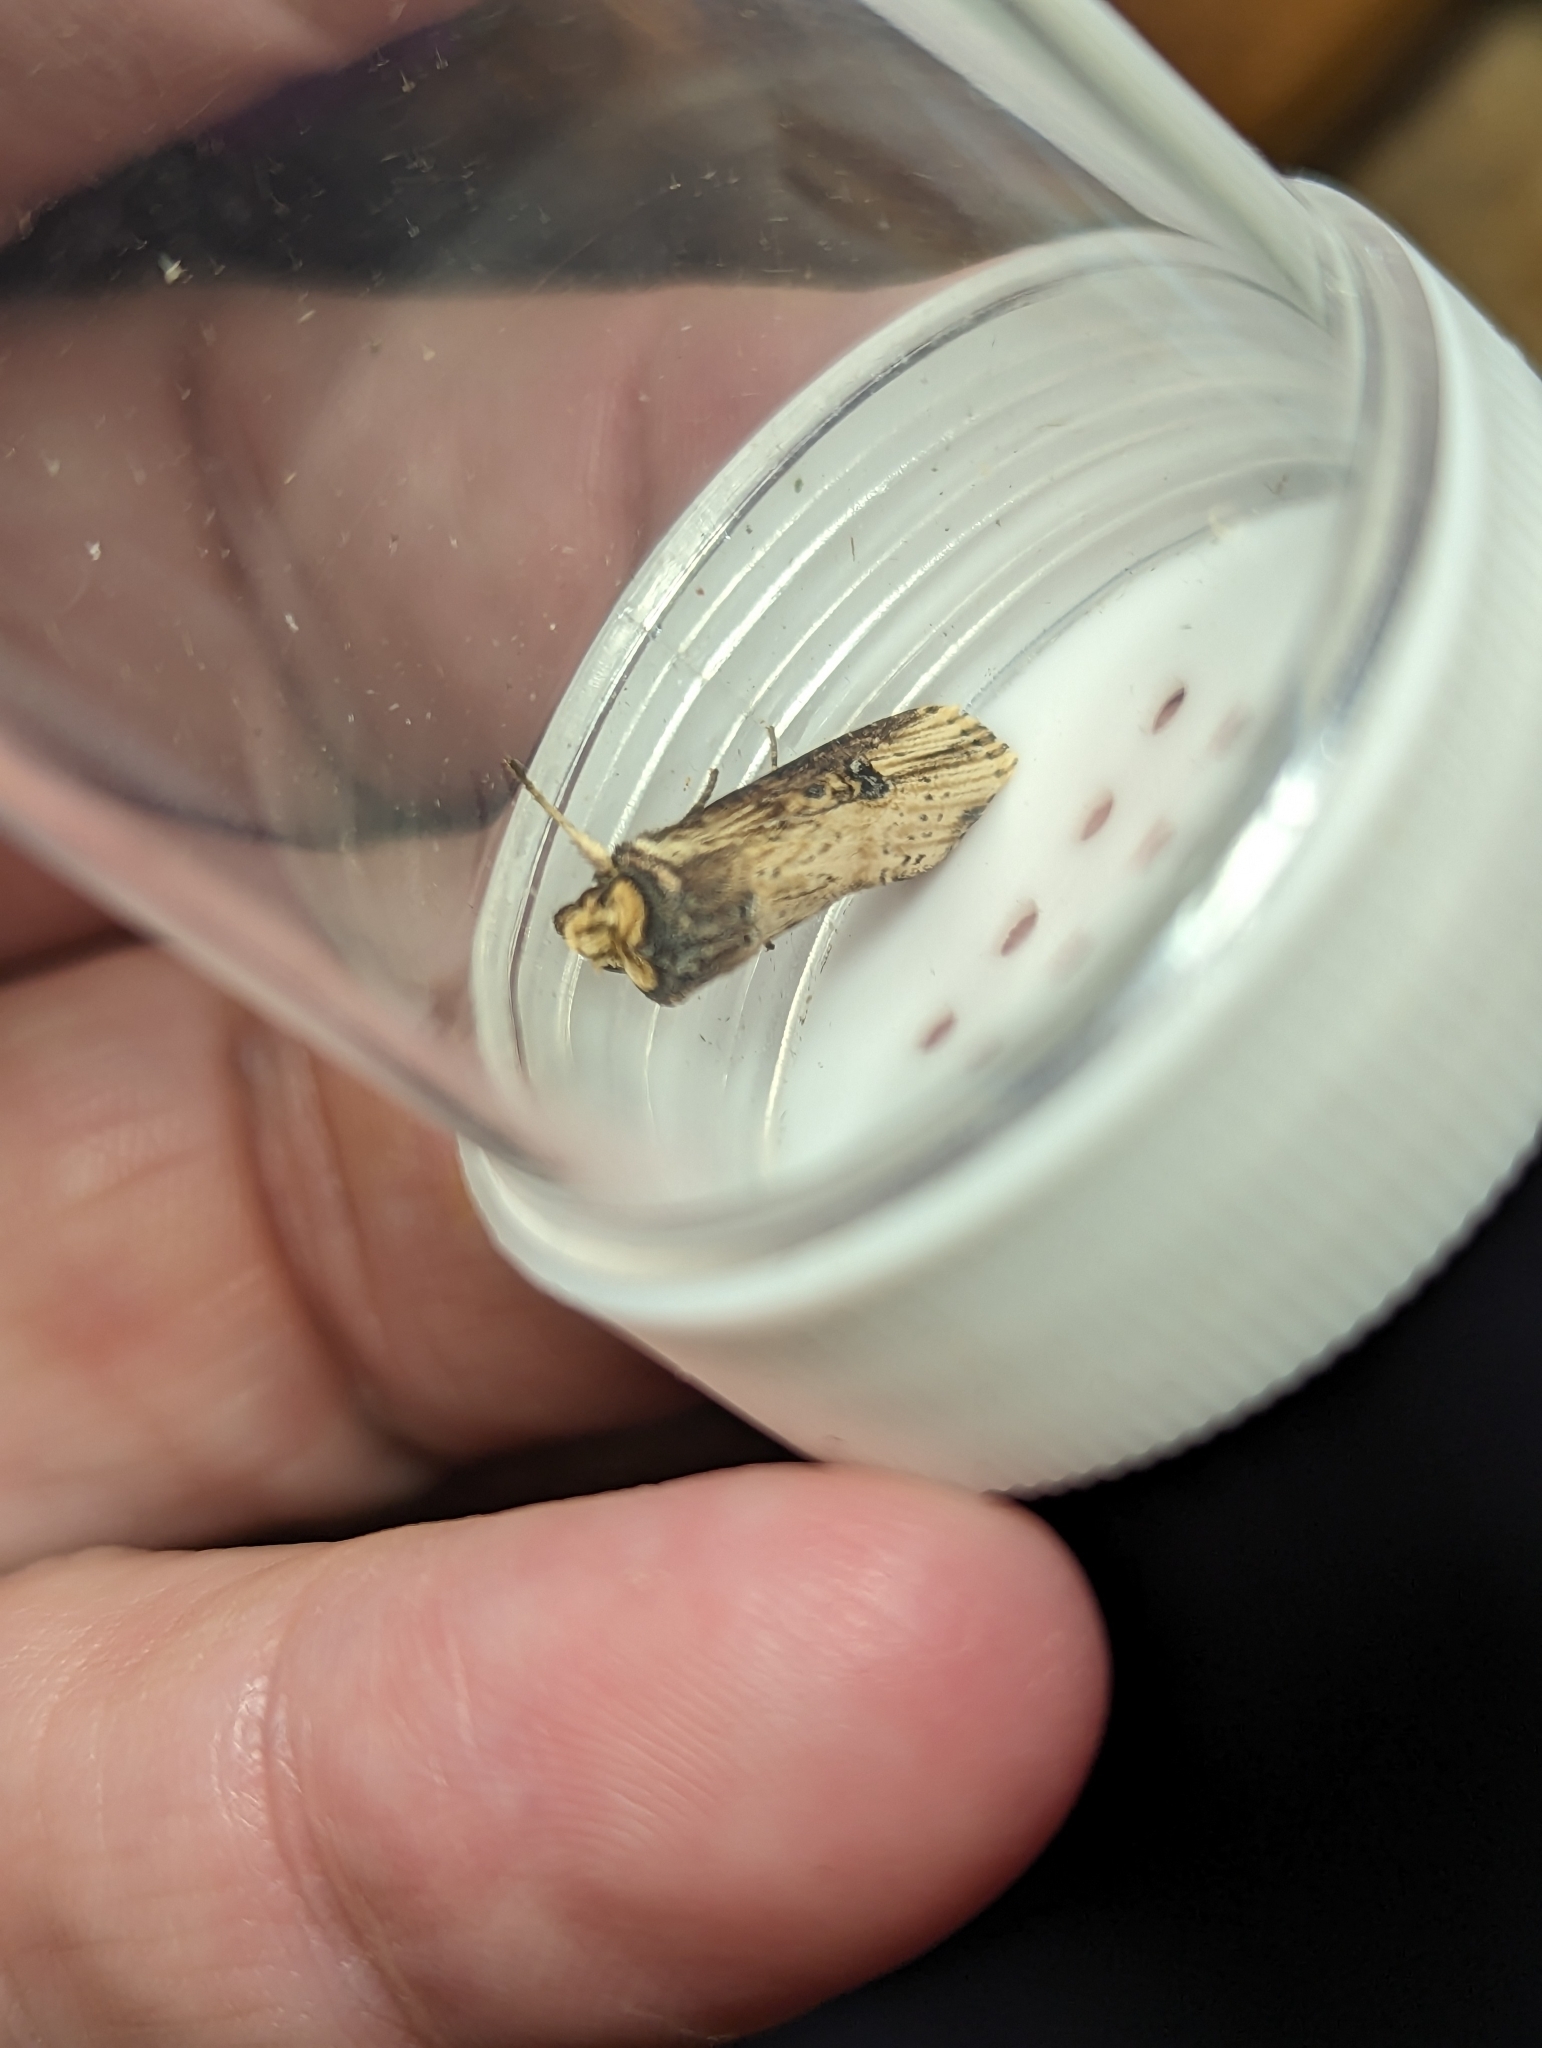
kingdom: Animalia
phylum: Arthropoda
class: Insecta
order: Lepidoptera
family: Noctuidae
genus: Axylia
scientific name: Axylia putris
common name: Flame
